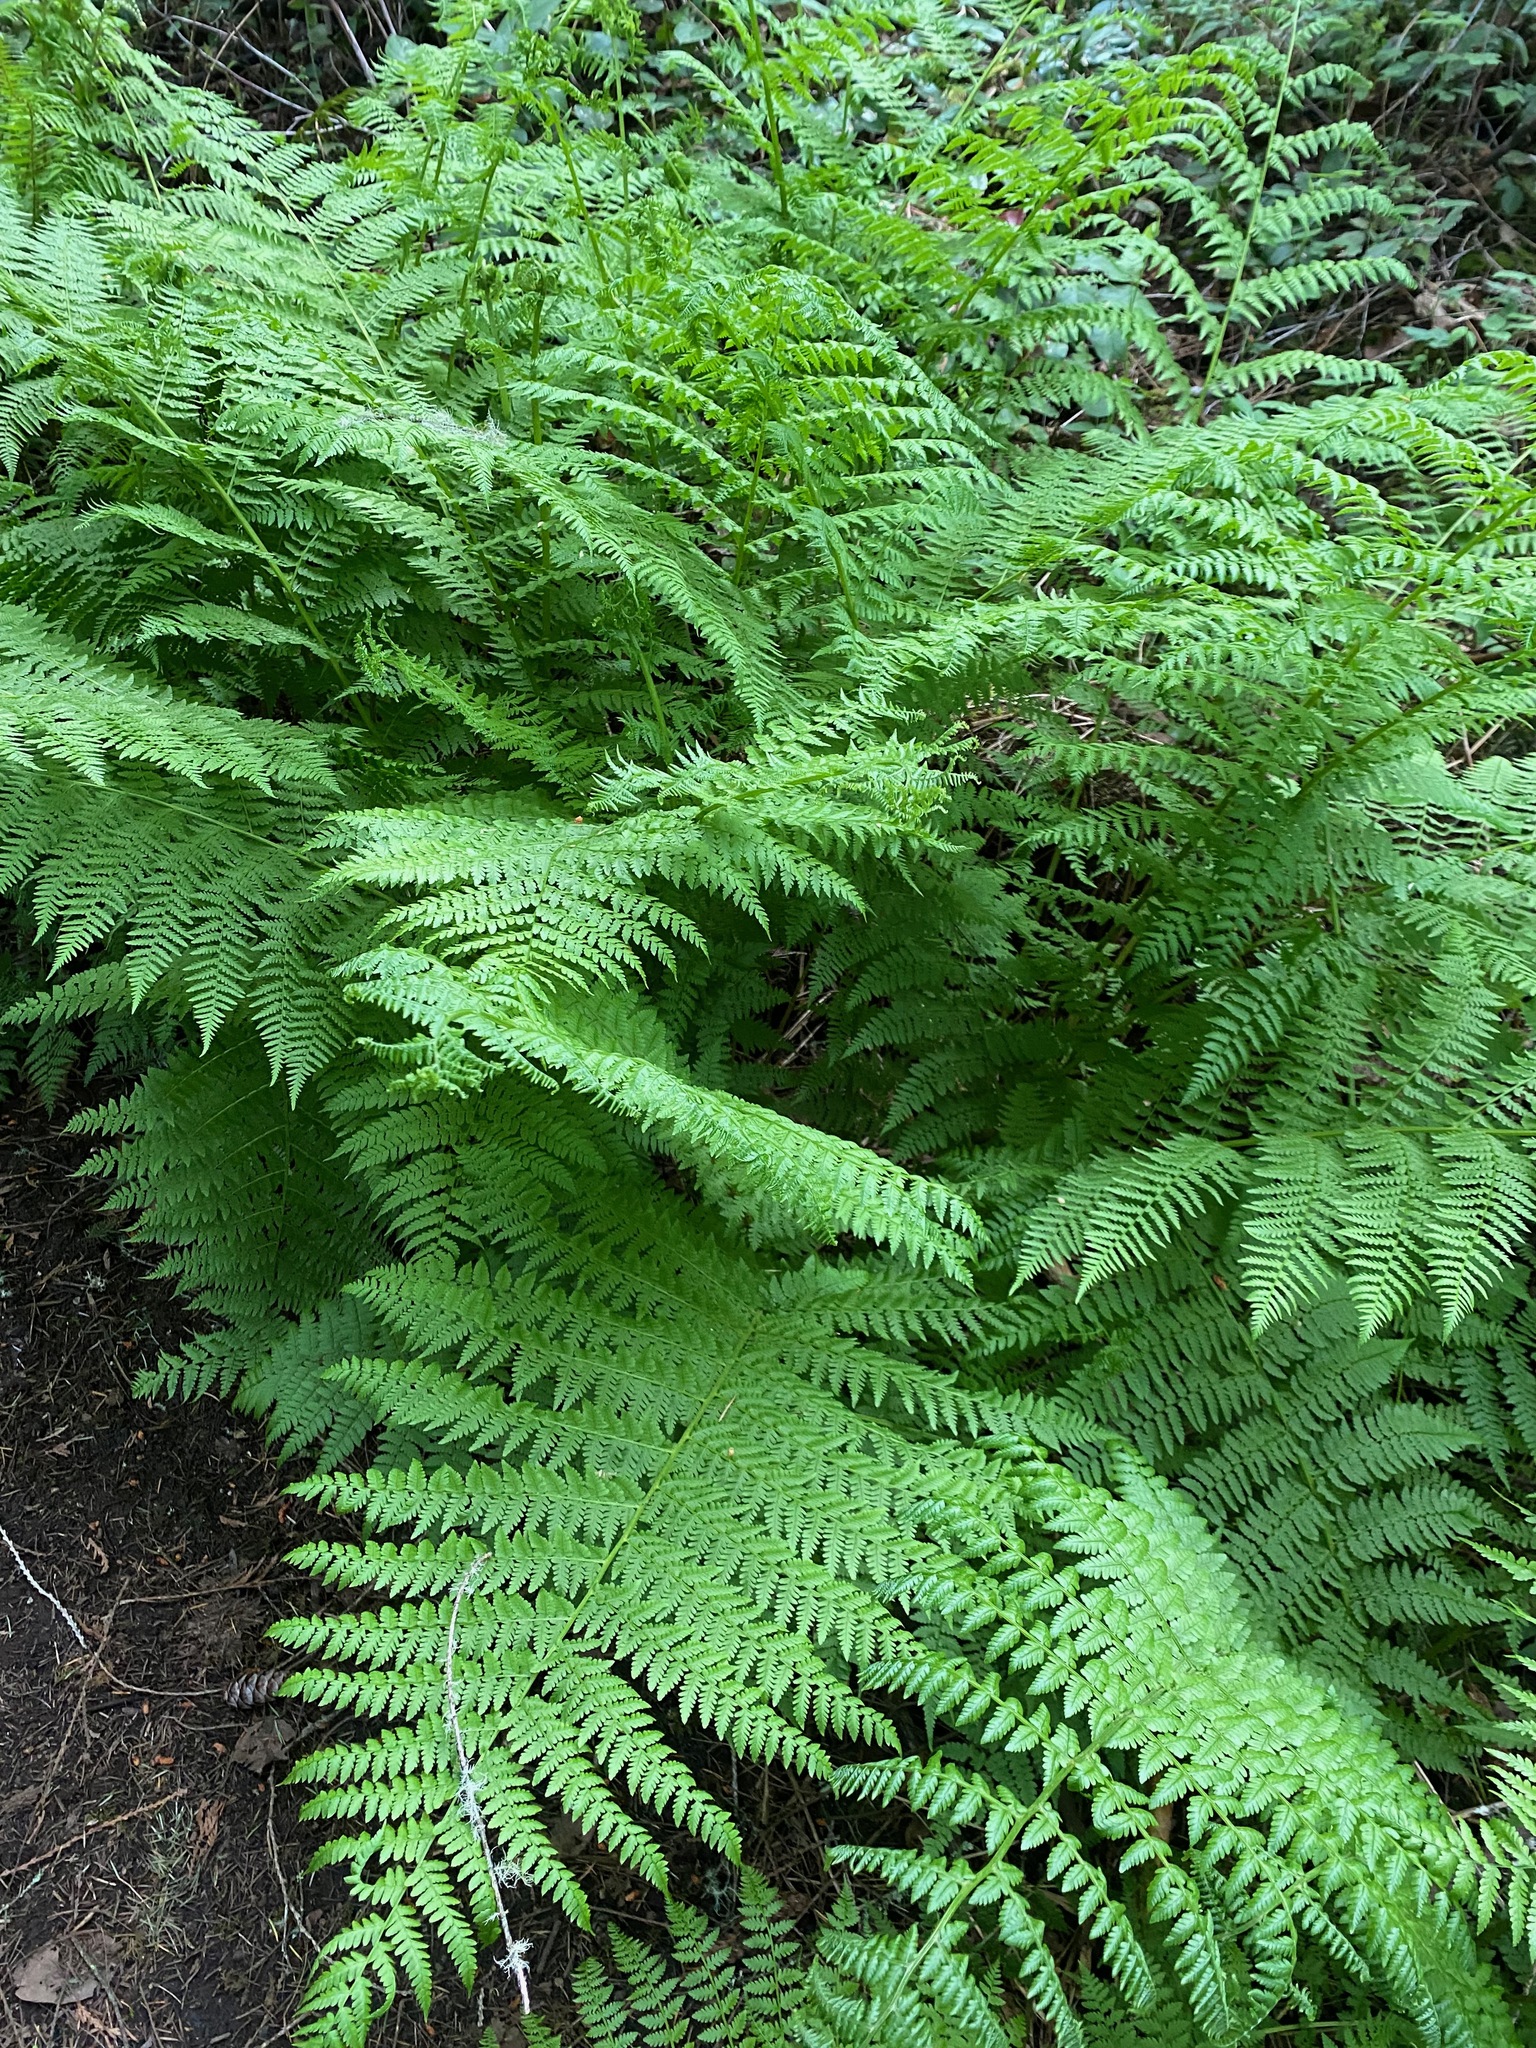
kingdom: Plantae
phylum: Tracheophyta
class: Polypodiopsida
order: Polypodiales
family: Athyriaceae
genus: Athyrium
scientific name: Athyrium filix-femina
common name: Lady fern
